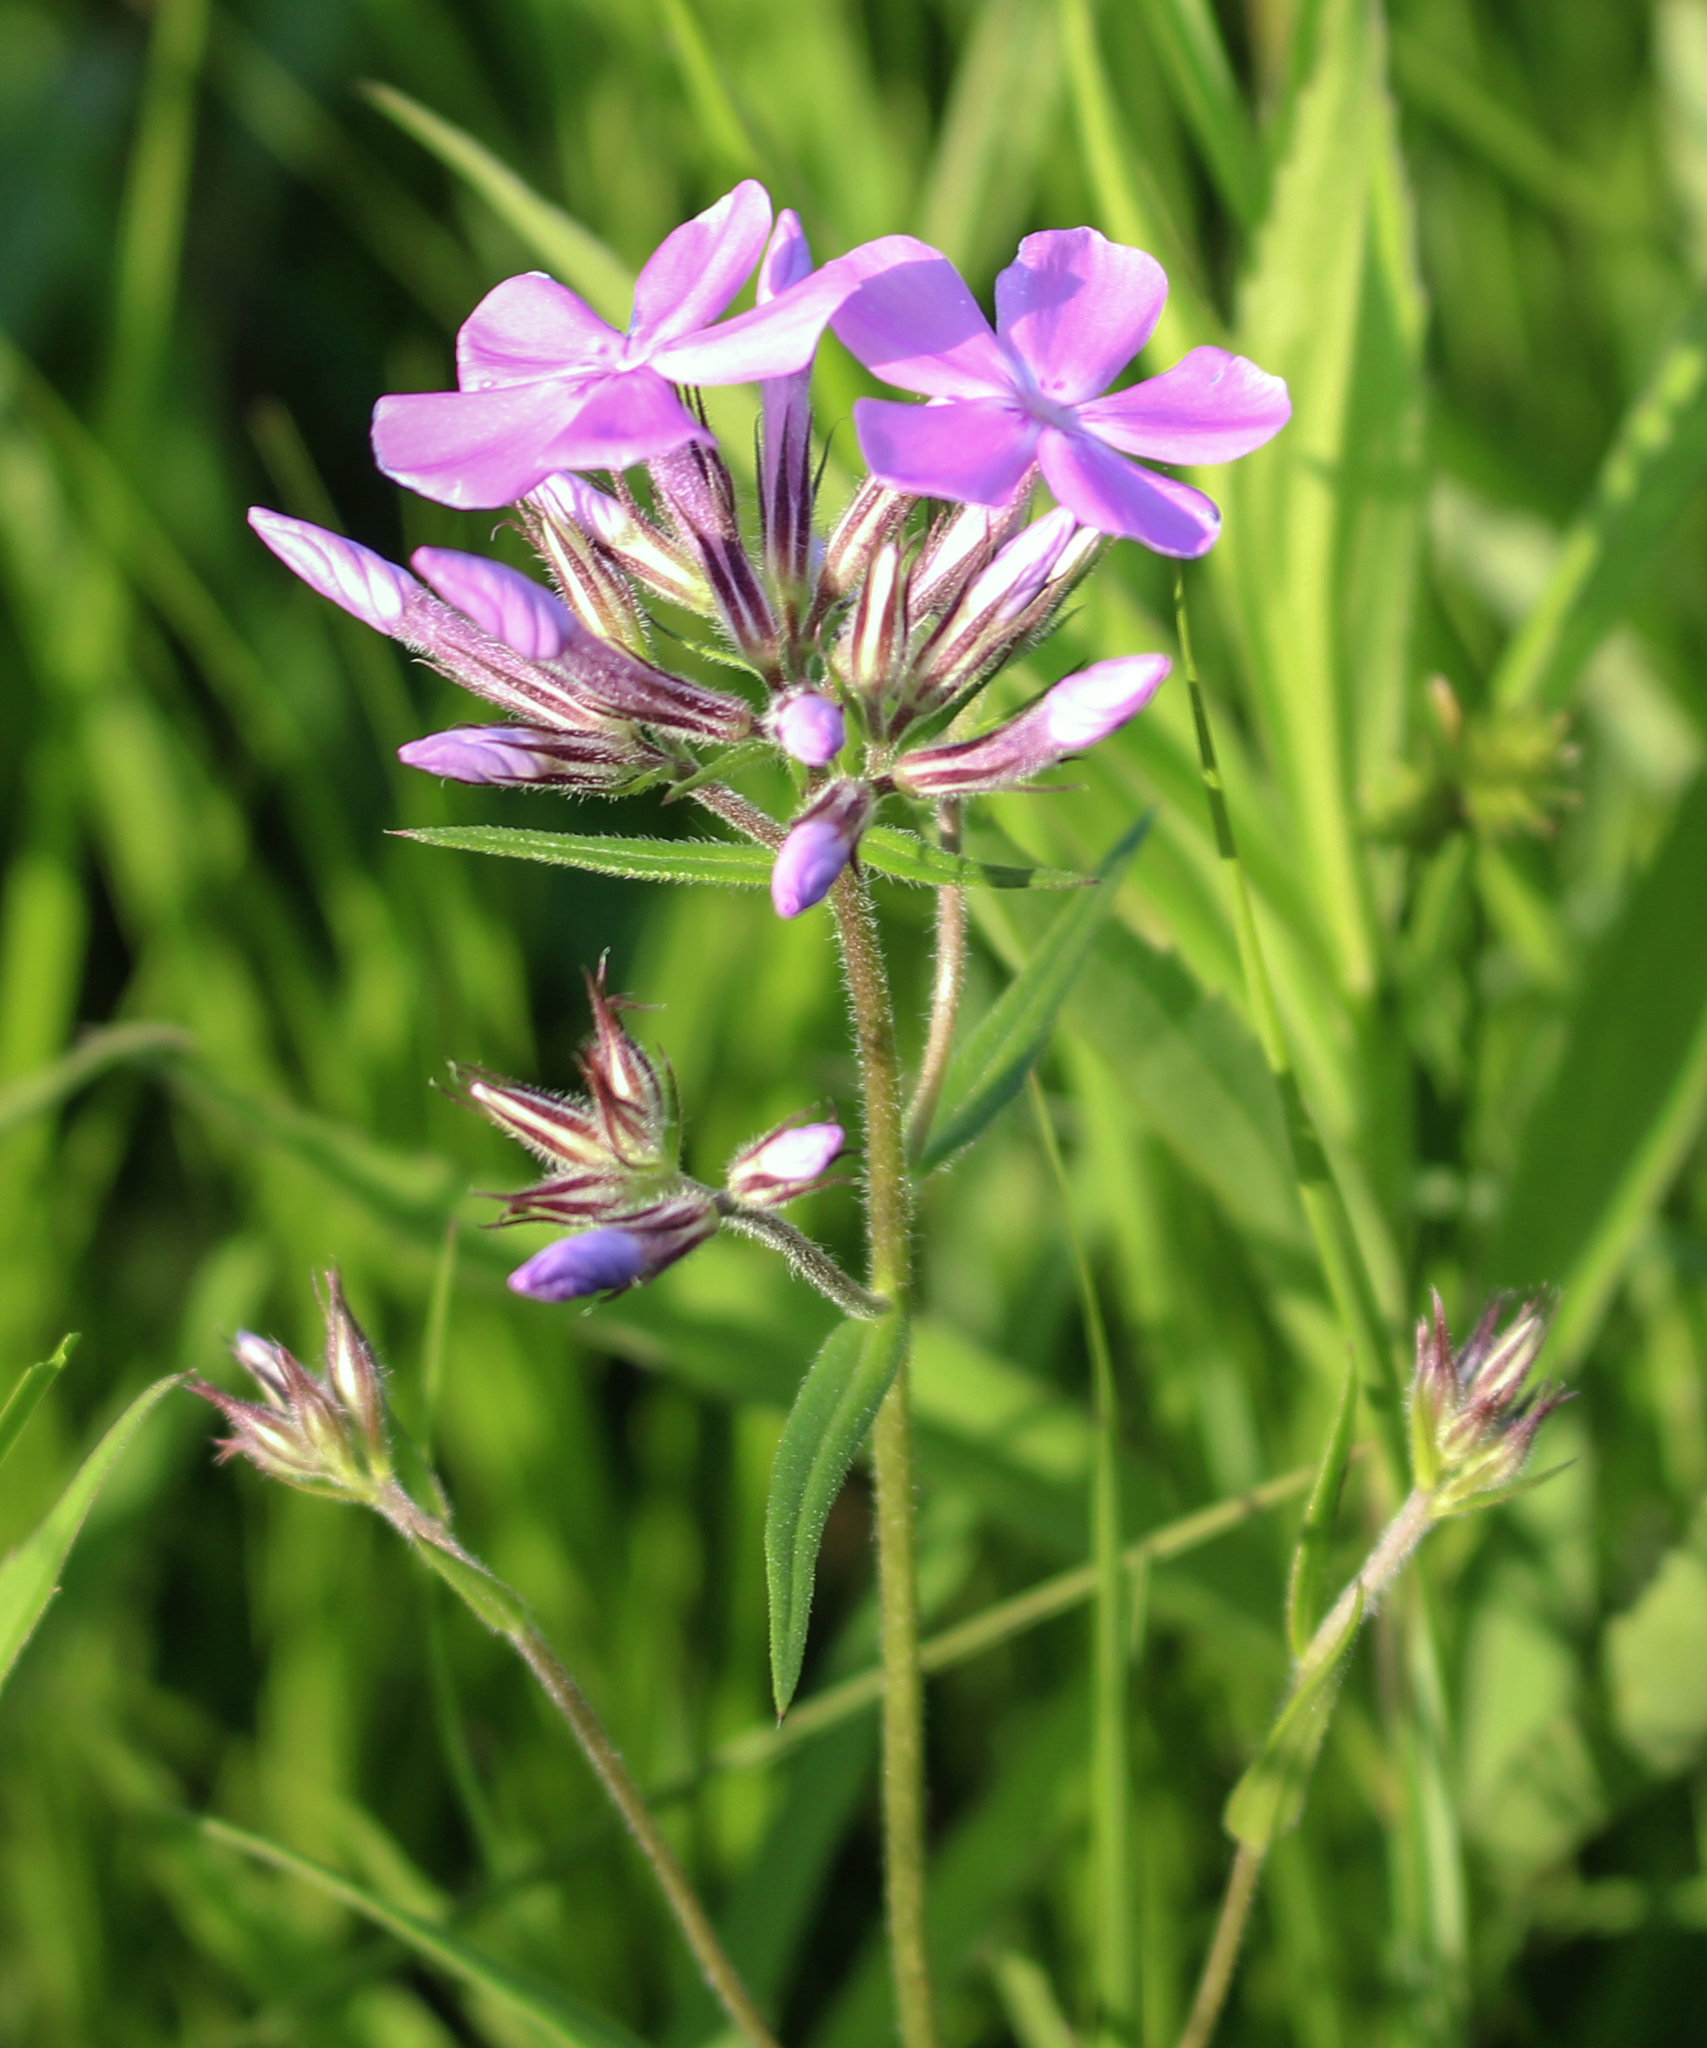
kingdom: Plantae
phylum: Tracheophyta
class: Magnoliopsida
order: Ericales
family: Polemoniaceae
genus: Phlox
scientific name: Phlox pilosa
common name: Prairie phlox
